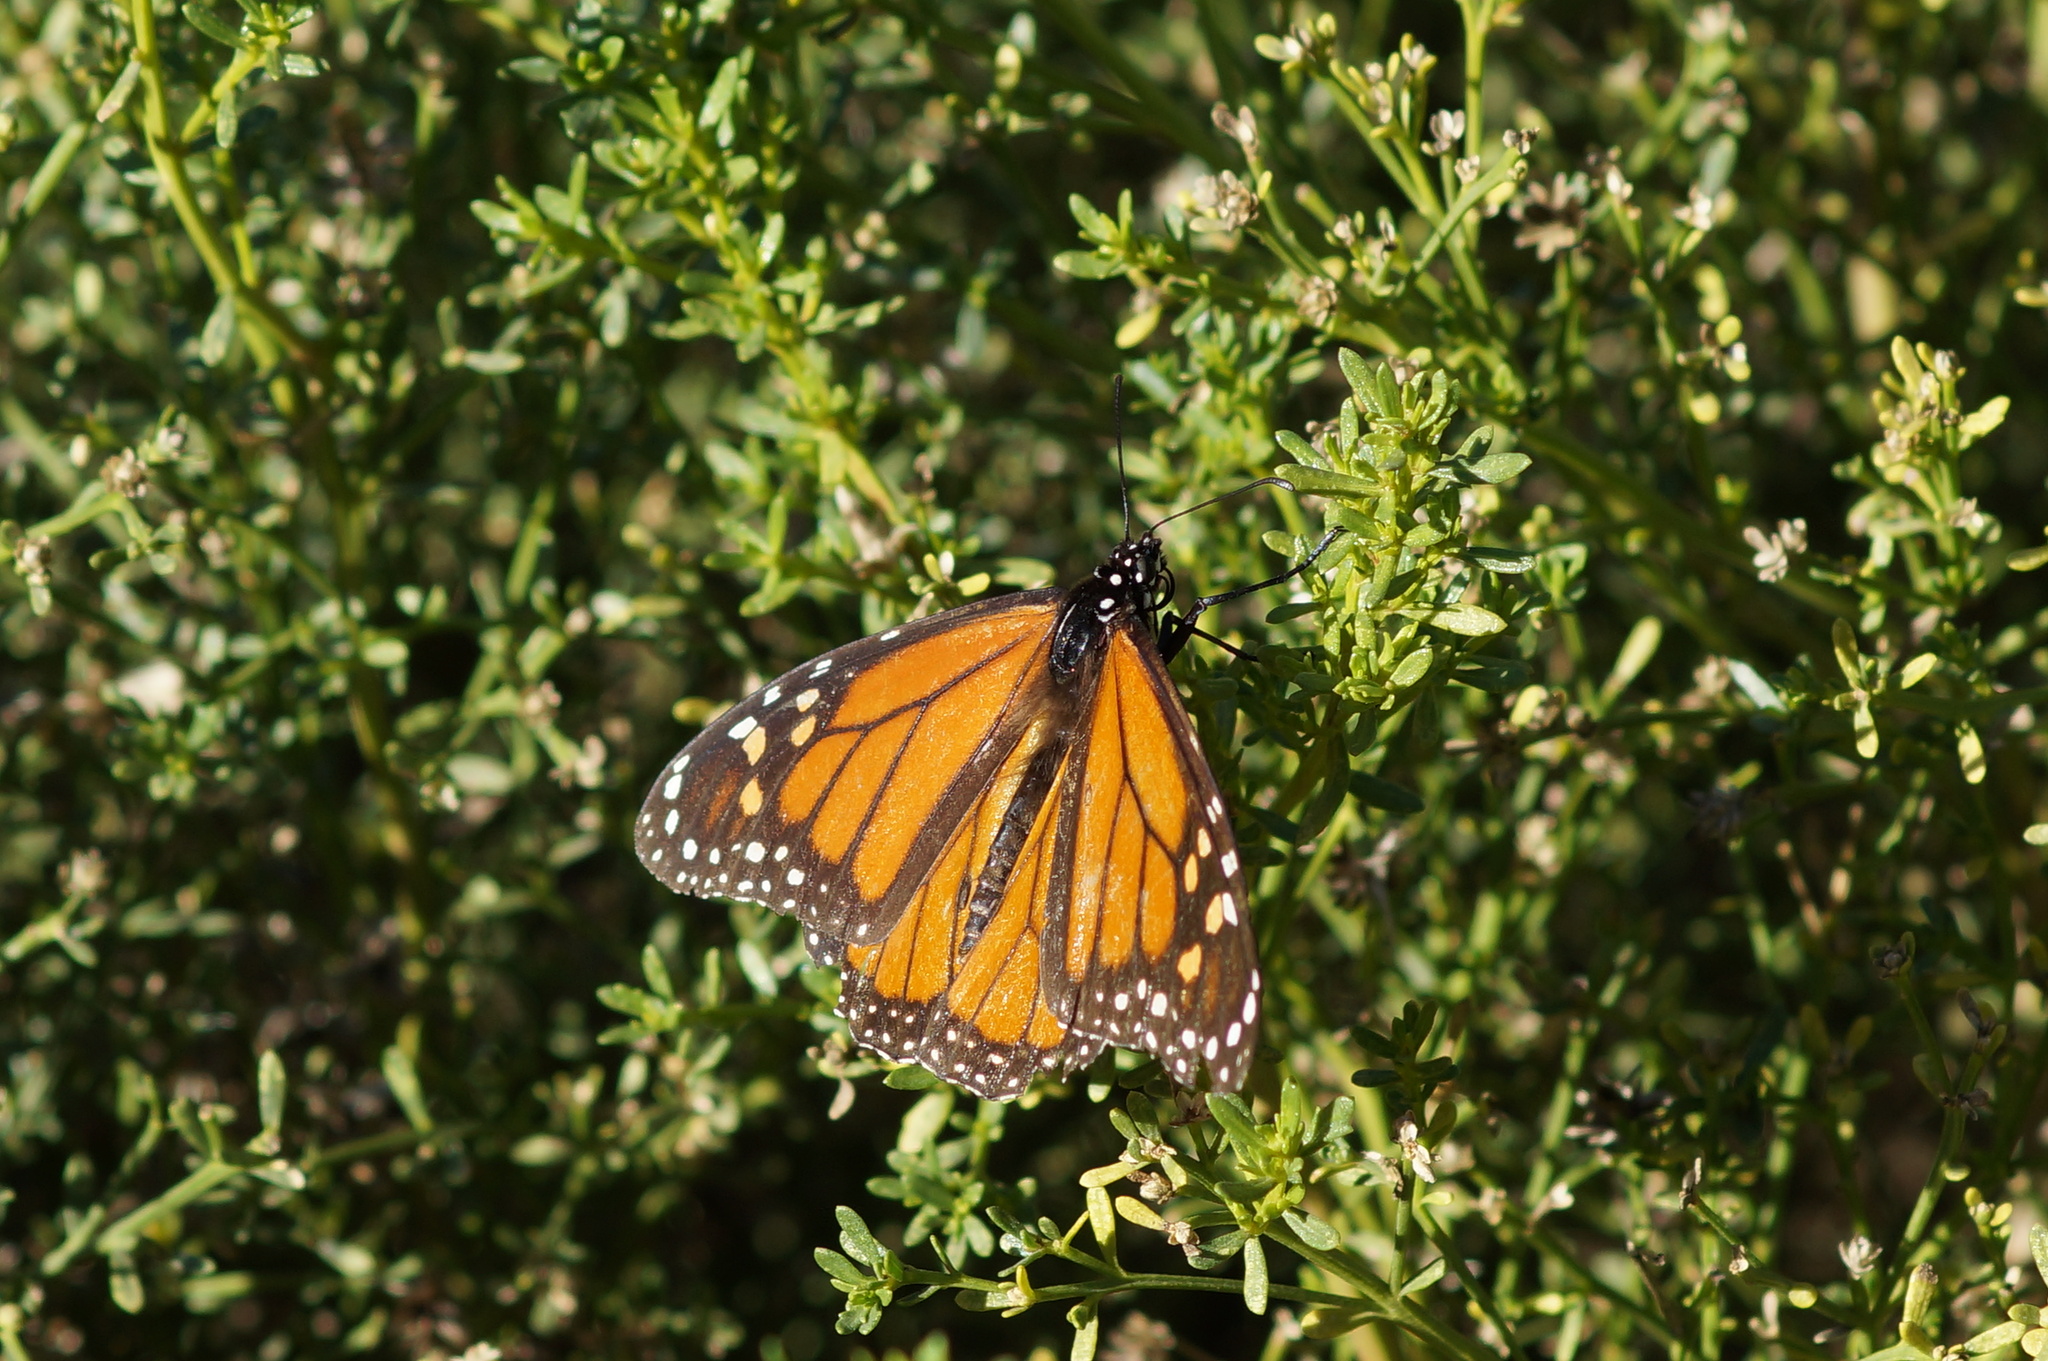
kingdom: Animalia
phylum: Arthropoda
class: Insecta
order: Lepidoptera
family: Nymphalidae
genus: Danaus
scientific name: Danaus plexippus
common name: Monarch
